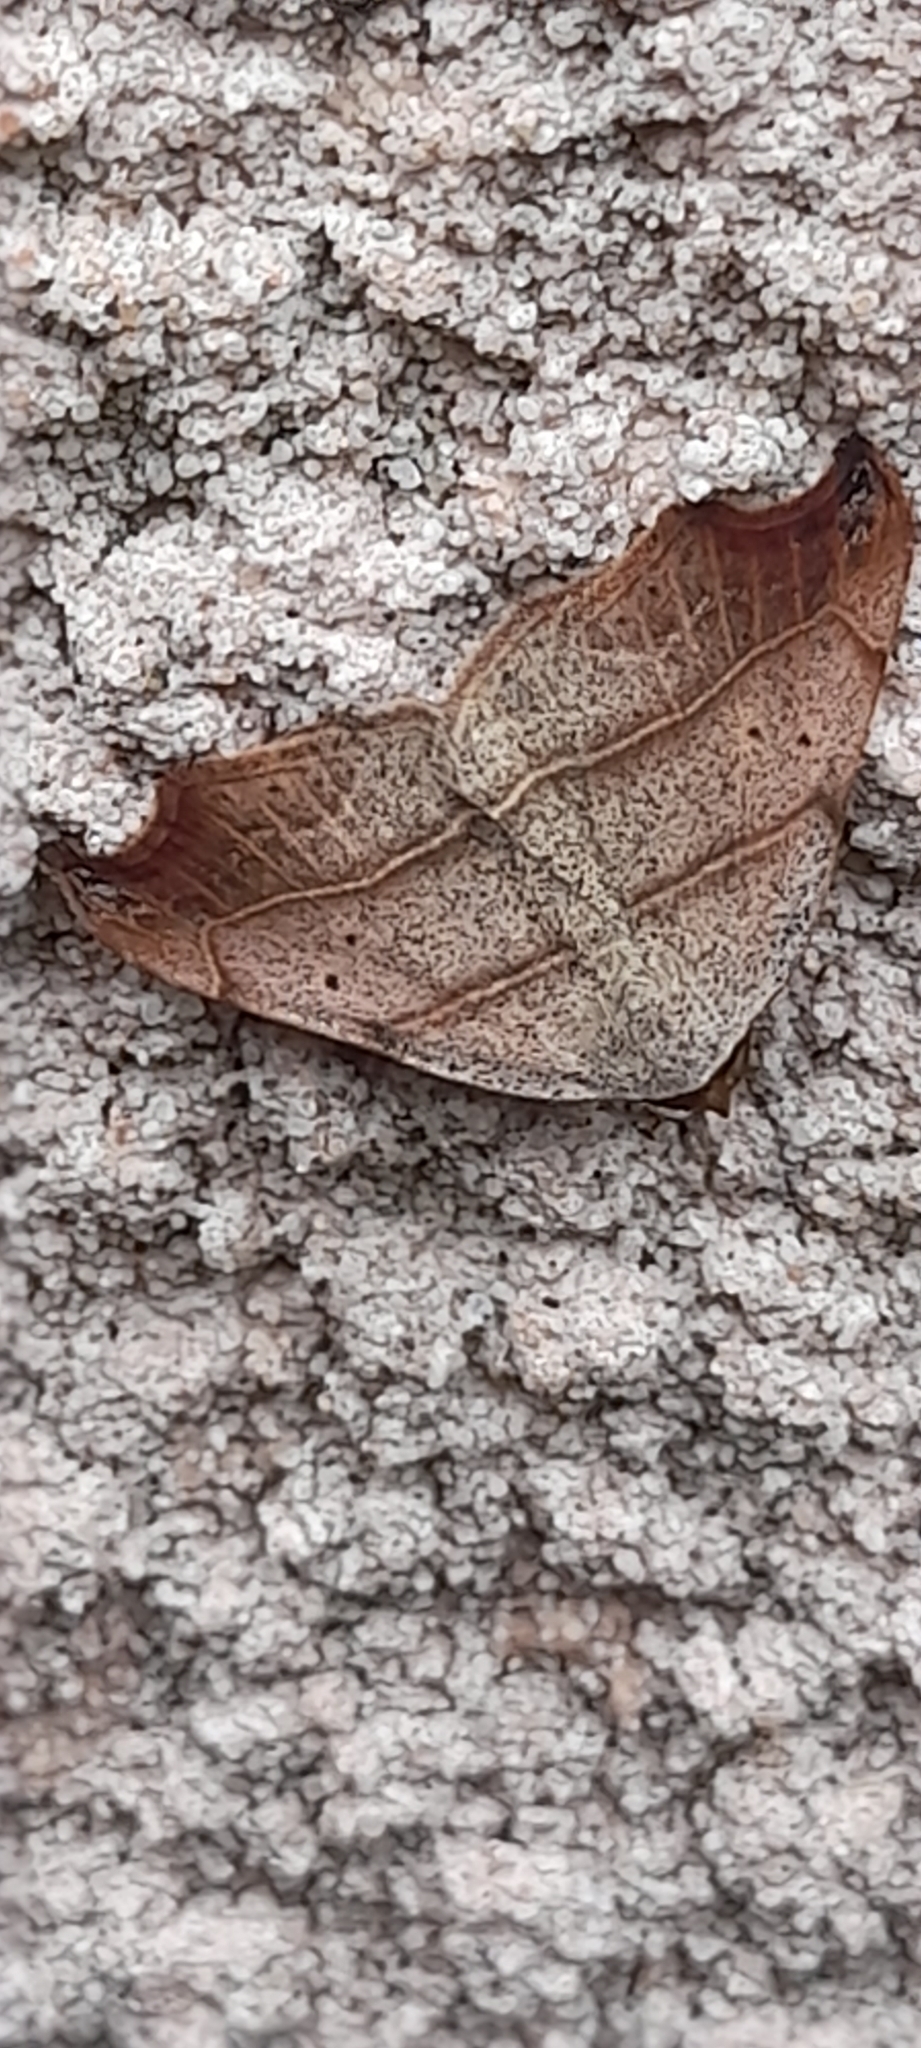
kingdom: Animalia
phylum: Arthropoda
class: Insecta
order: Lepidoptera
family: Erebidae
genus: Laspeyria
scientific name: Laspeyria flexula
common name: Beautiful hook-tip
